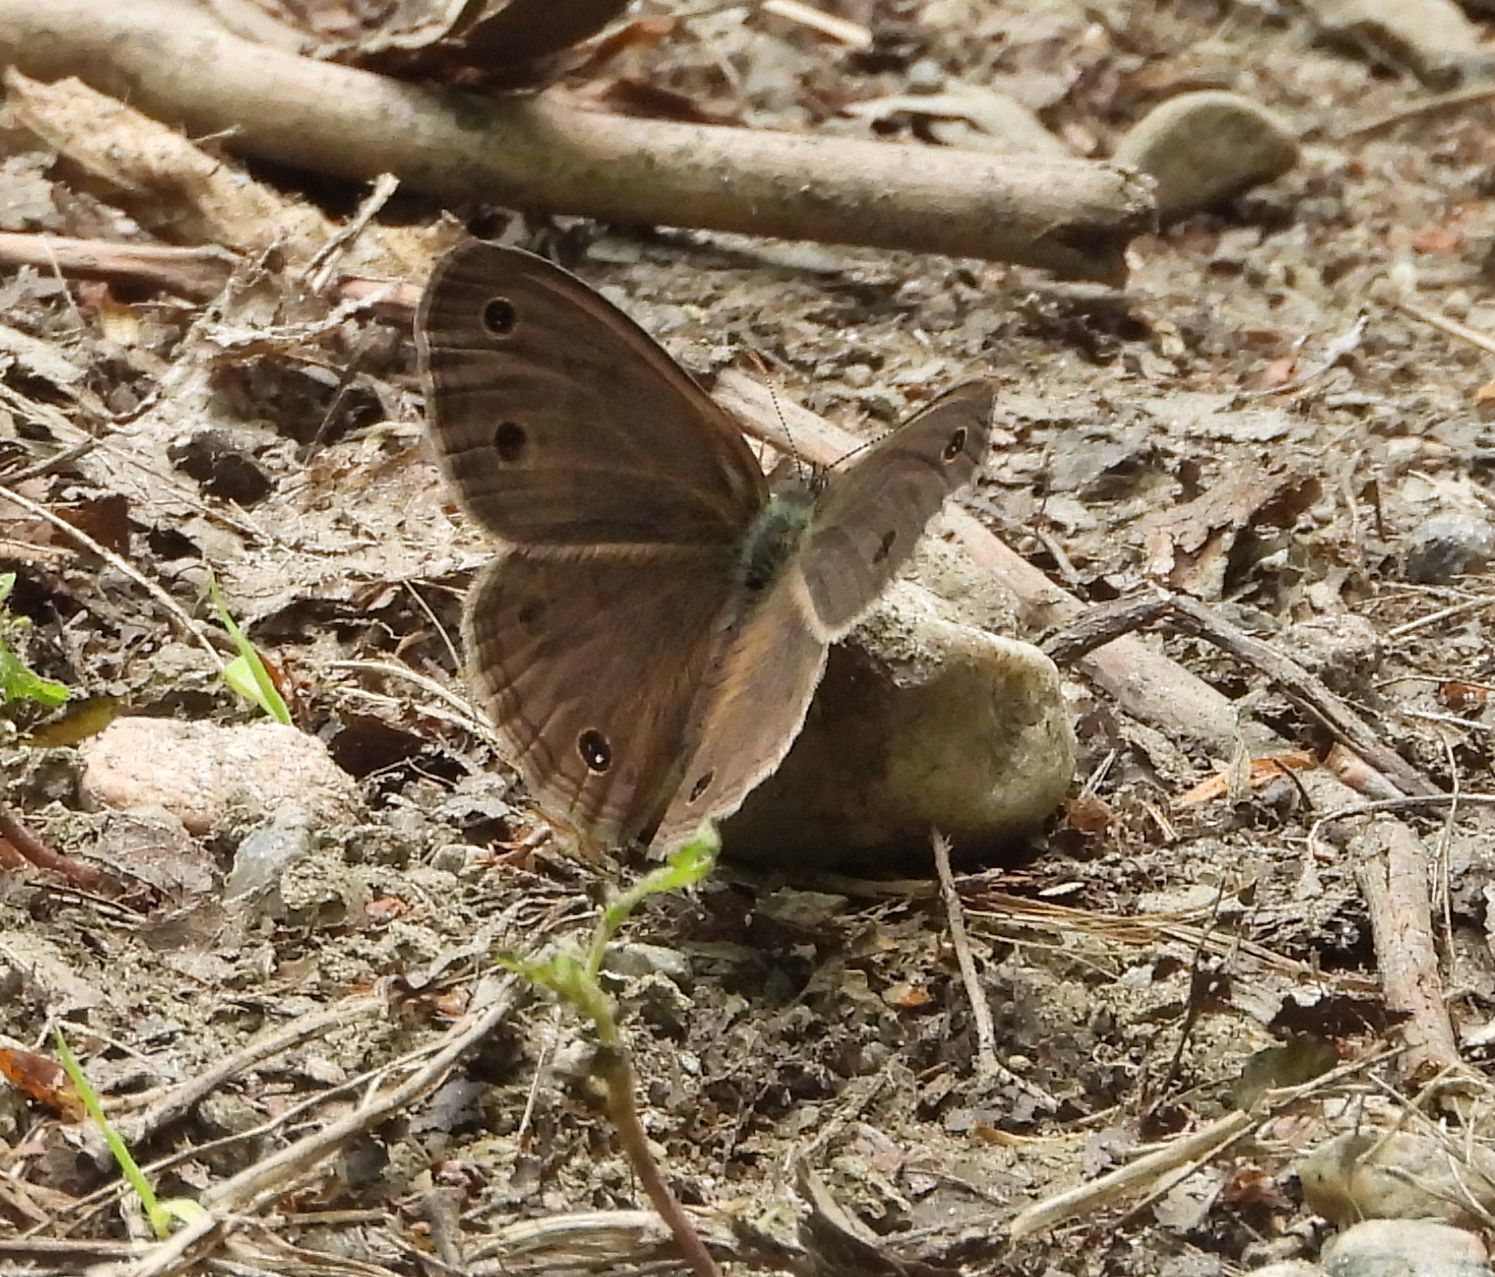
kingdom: Animalia
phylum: Arthropoda
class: Insecta
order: Lepidoptera
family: Nymphalidae
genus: Euptychia
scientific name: Euptychia cymela
